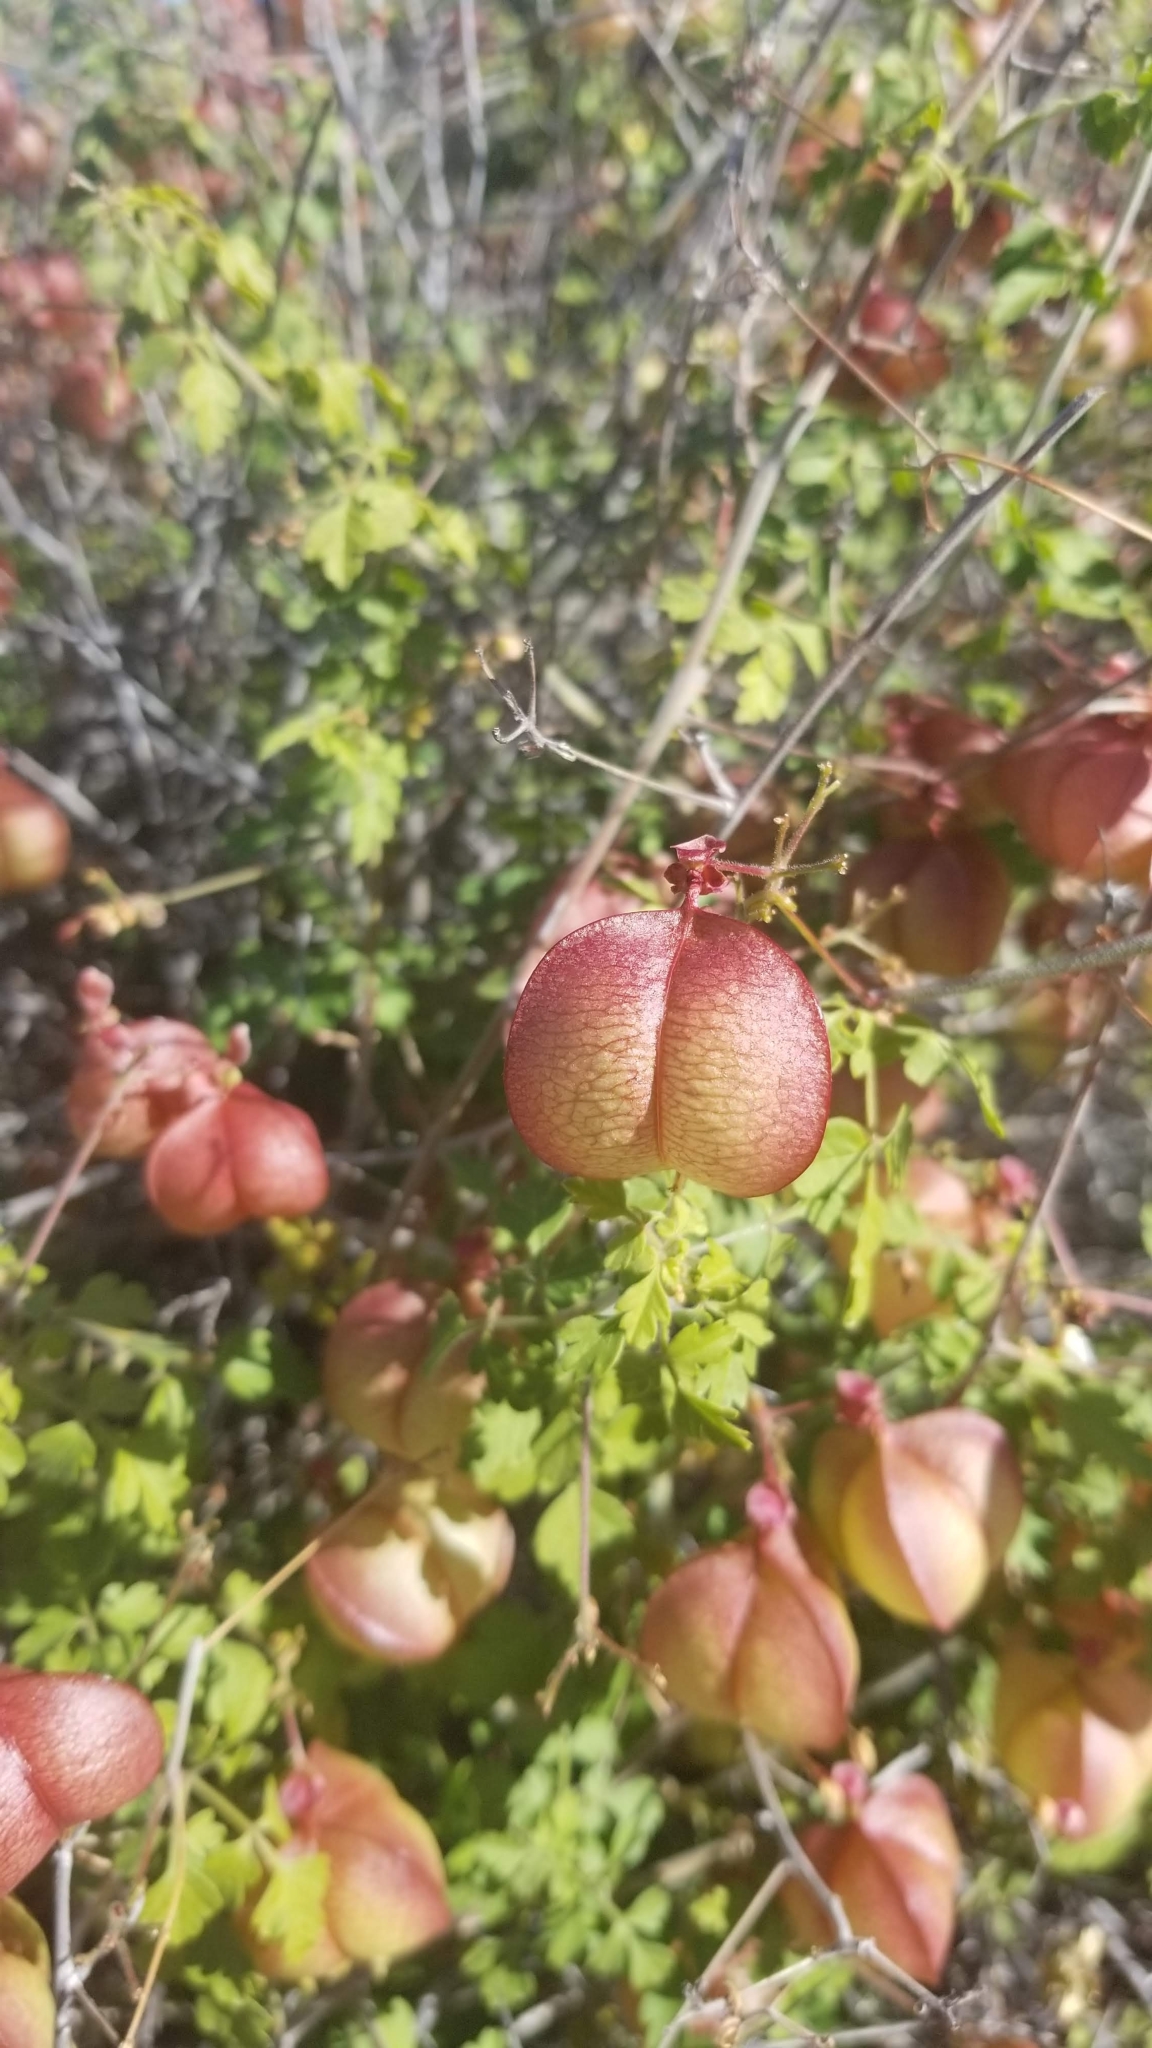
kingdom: Plantae
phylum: Tracheophyta
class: Magnoliopsida
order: Sapindales
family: Sapindaceae
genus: Cardiospermum
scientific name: Cardiospermum corindum
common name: Faux persil
